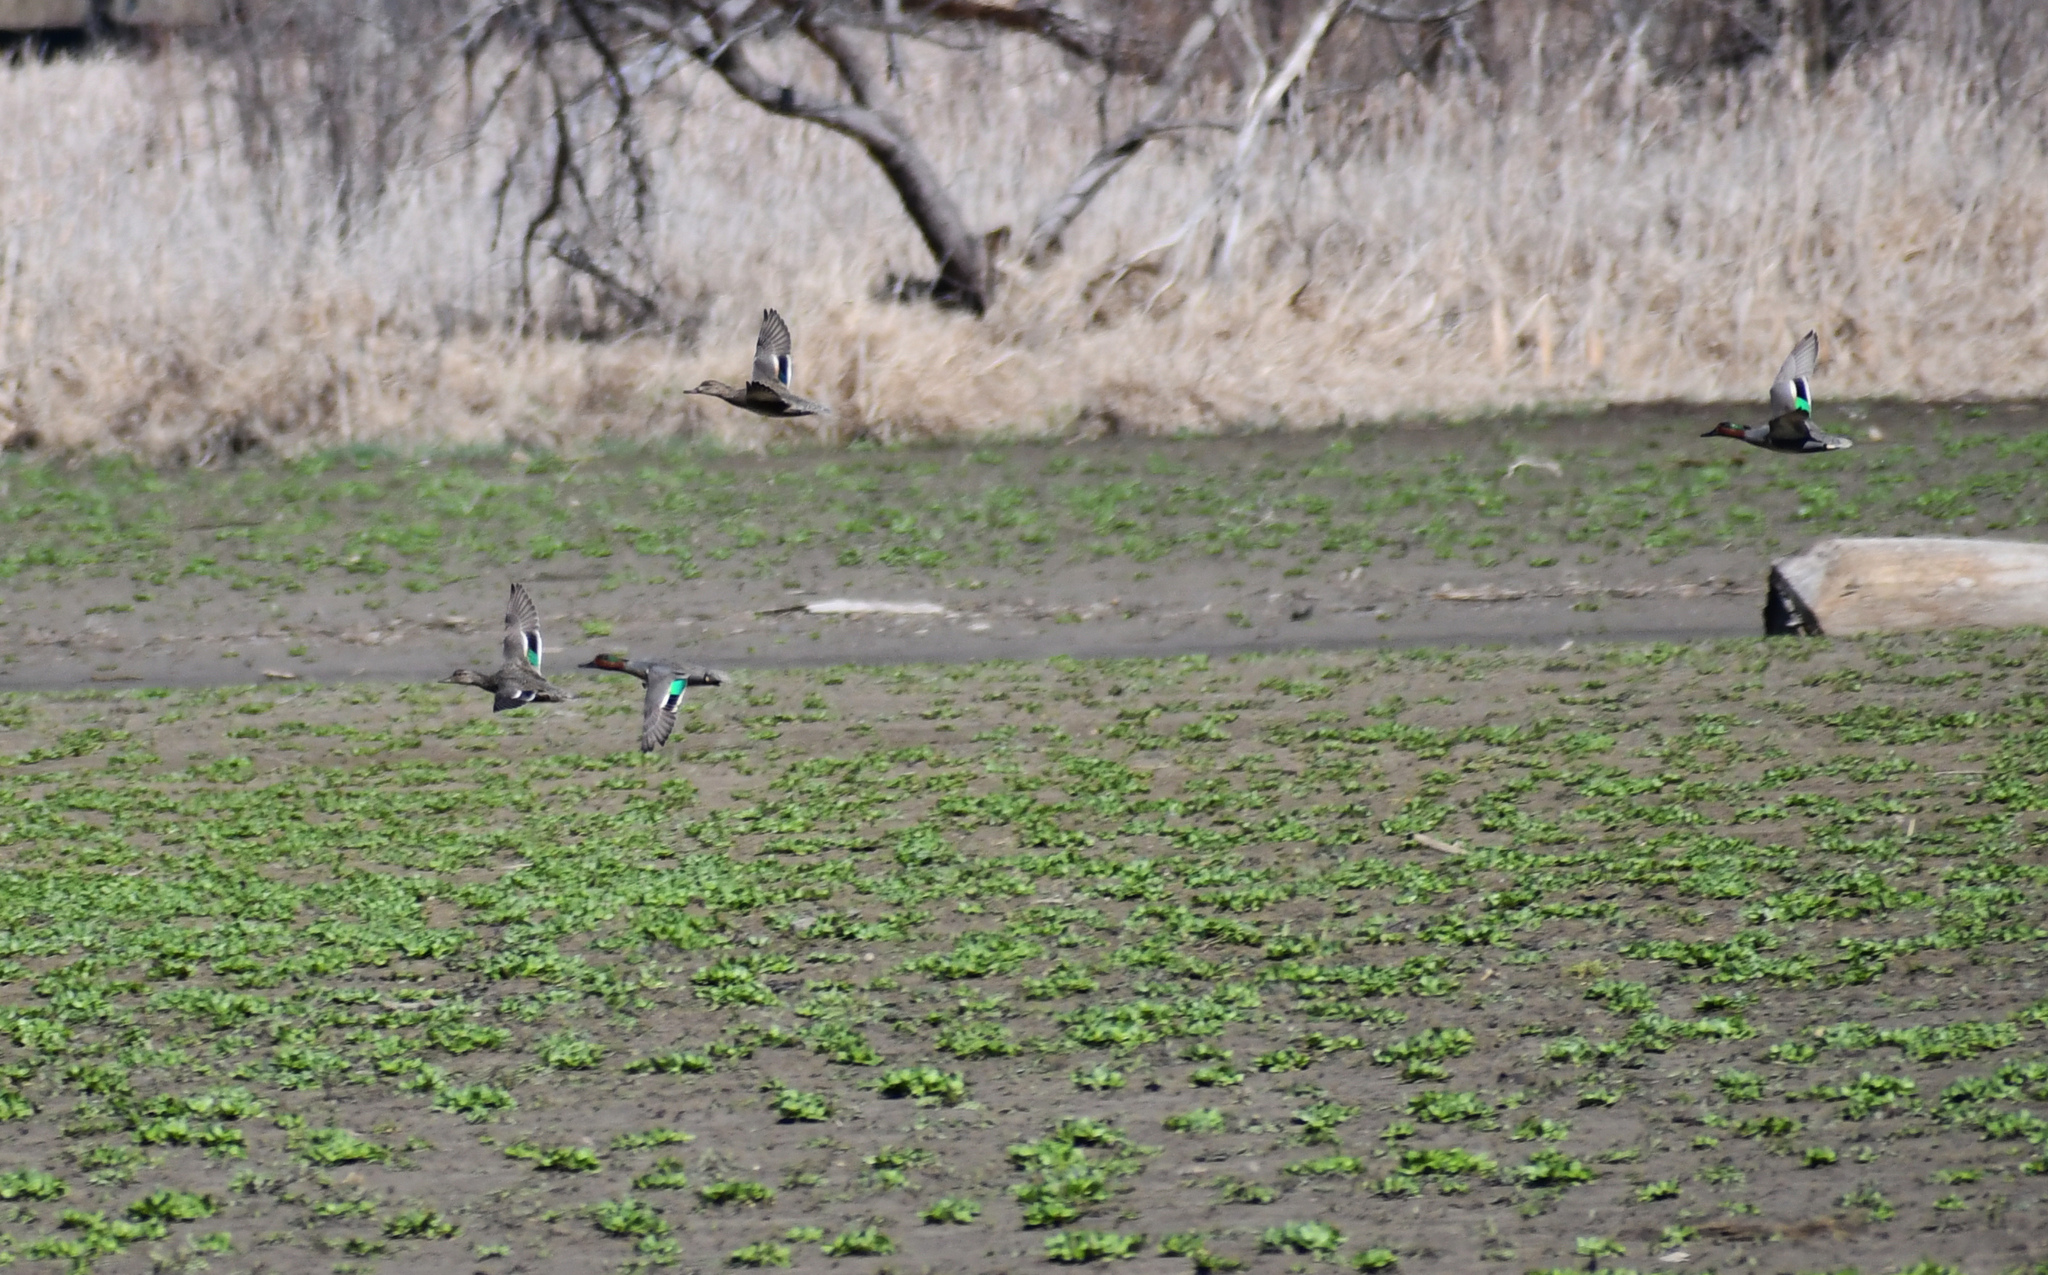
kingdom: Animalia
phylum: Chordata
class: Aves
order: Anseriformes
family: Anatidae
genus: Anas
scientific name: Anas crecca
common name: Eurasian teal
